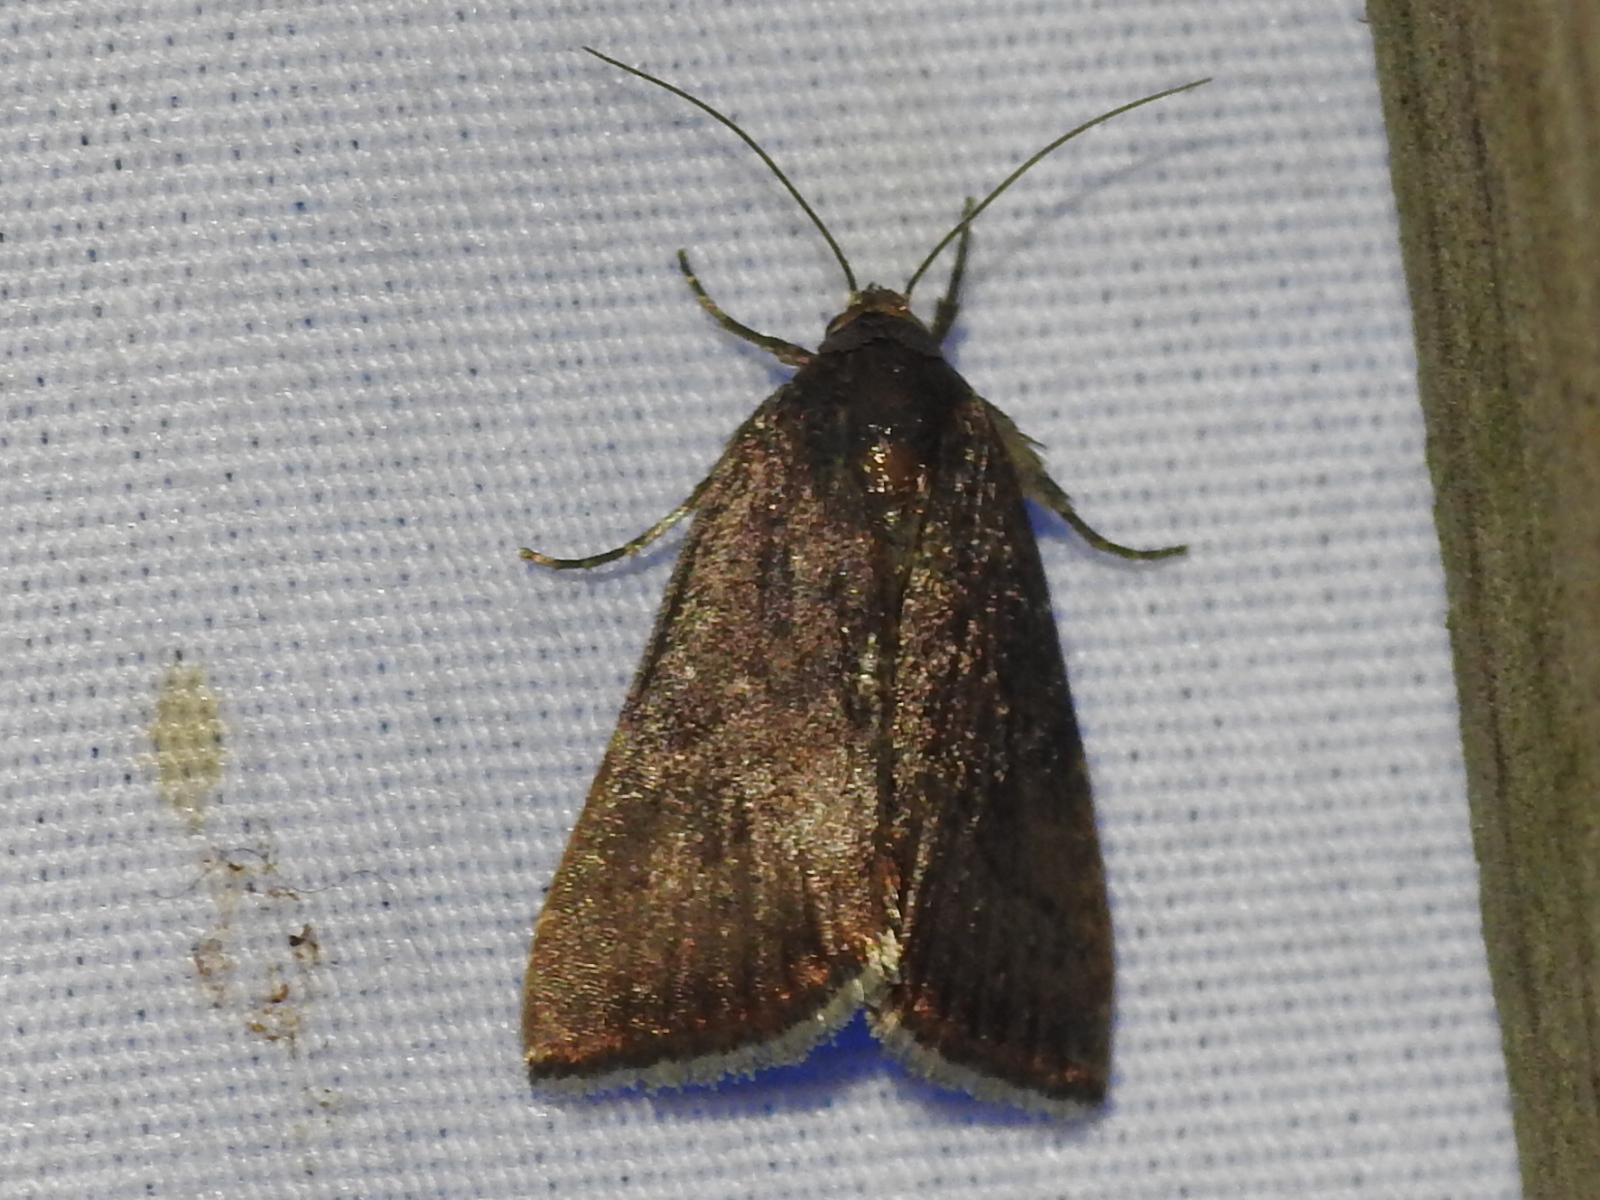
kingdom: Animalia
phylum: Arthropoda
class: Insecta
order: Lepidoptera
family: Noctuidae
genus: Galgula
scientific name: Galgula partita
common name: Wedgeling
